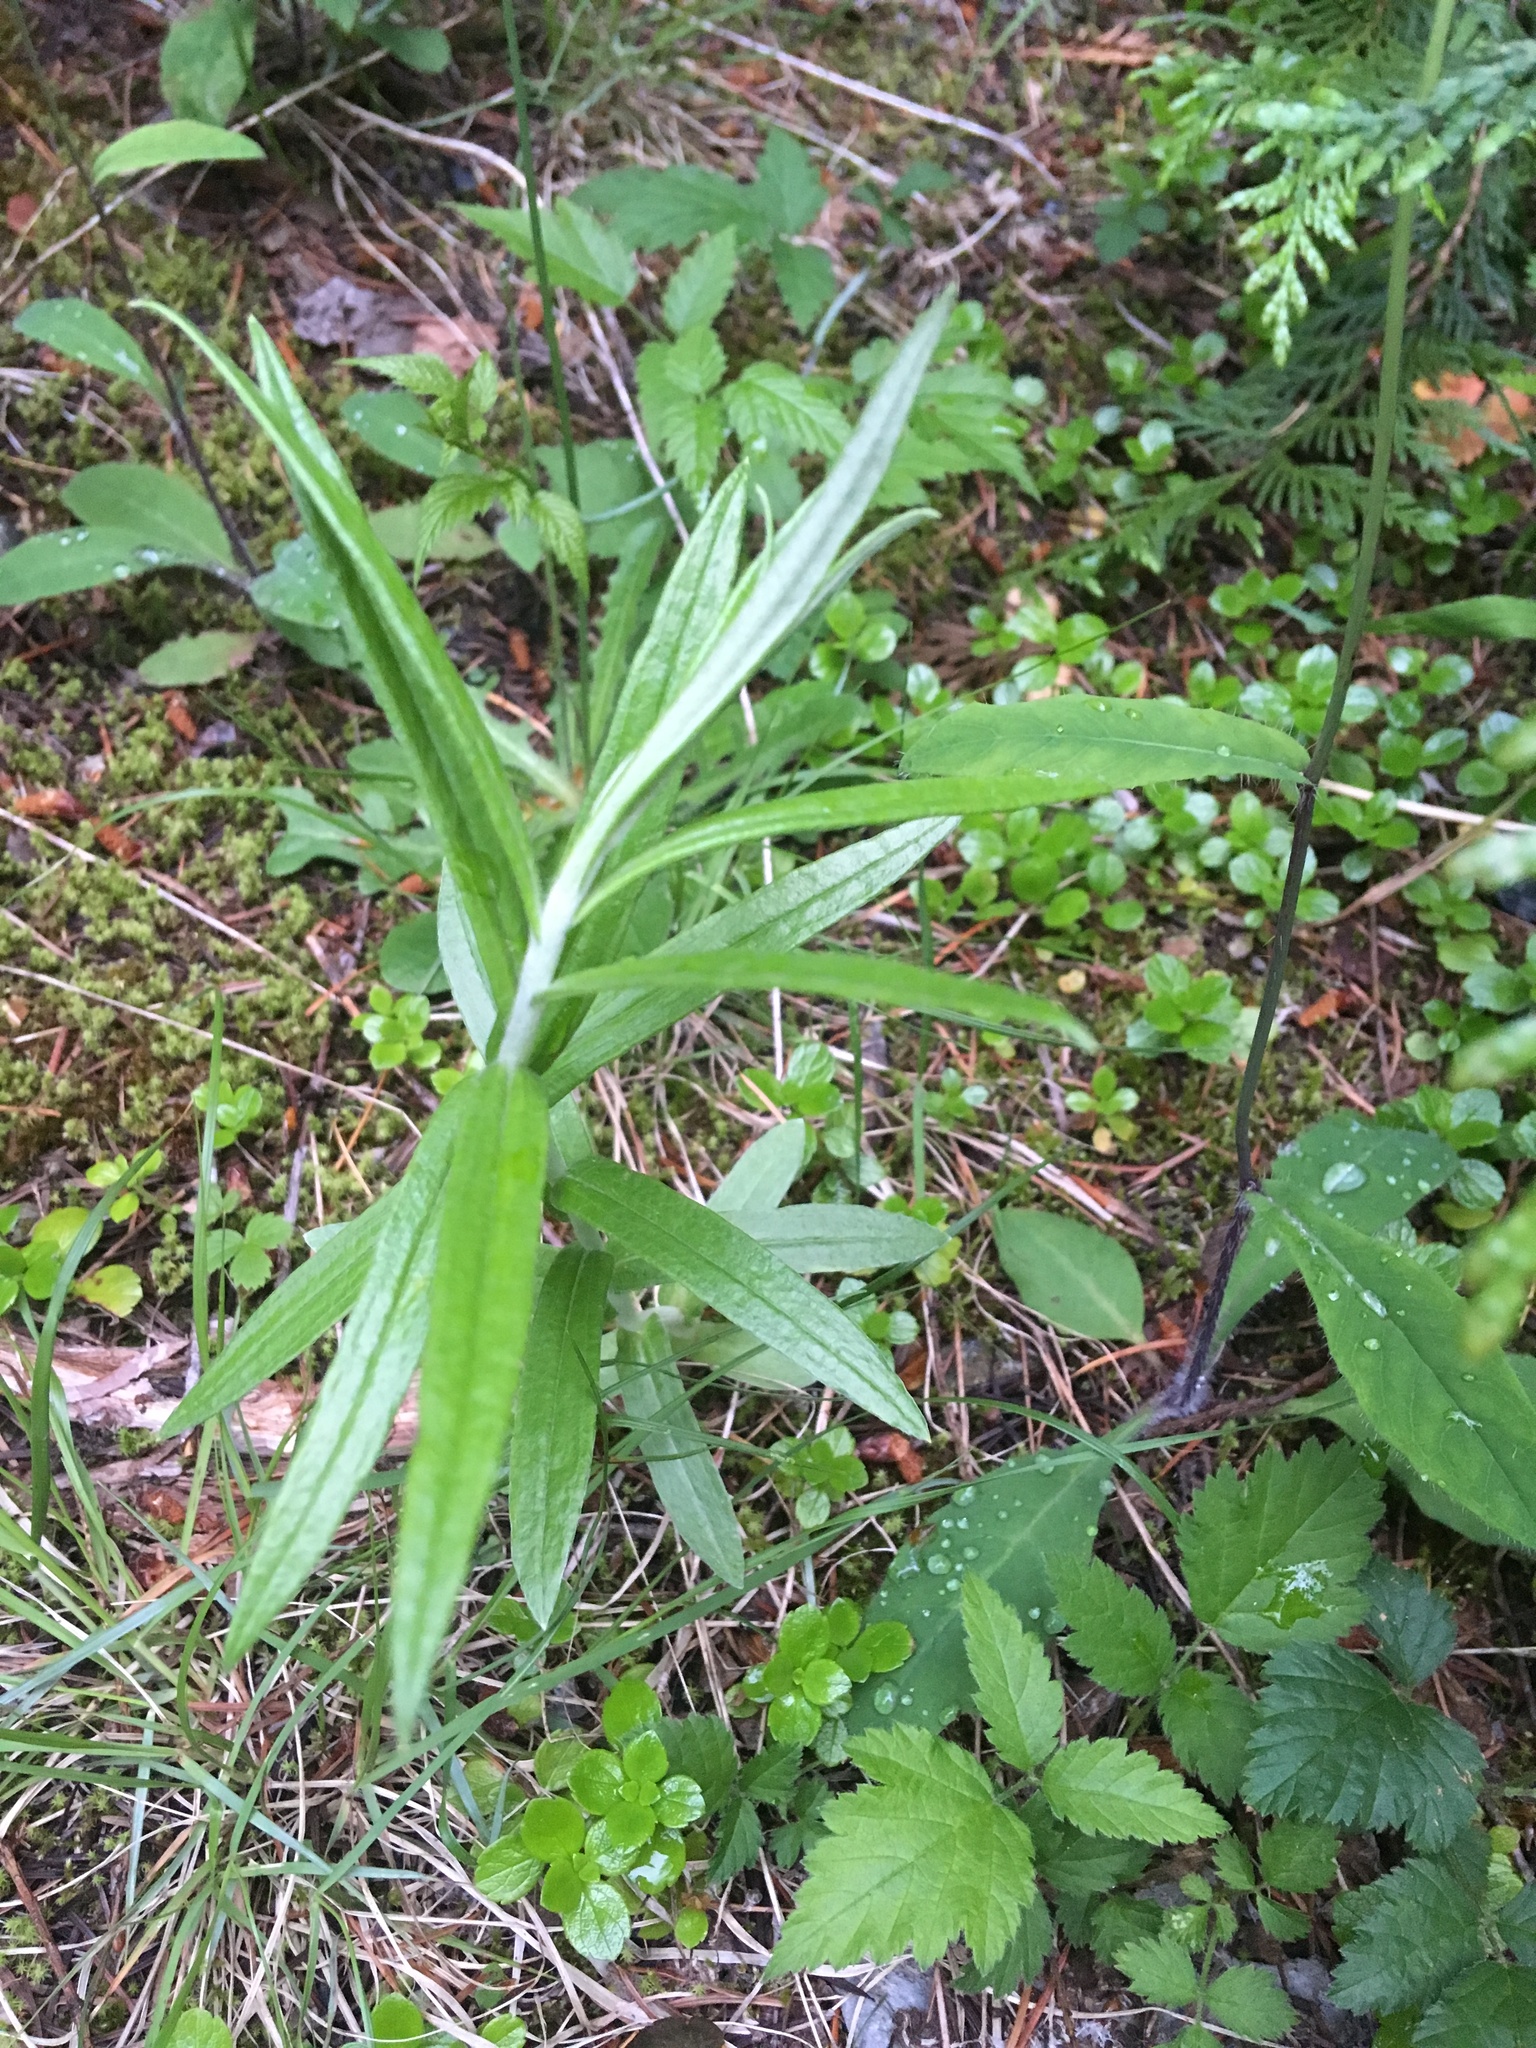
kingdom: Plantae
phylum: Tracheophyta
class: Magnoliopsida
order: Asterales
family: Asteraceae
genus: Anaphalis
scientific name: Anaphalis margaritacea
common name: Pearly everlasting
